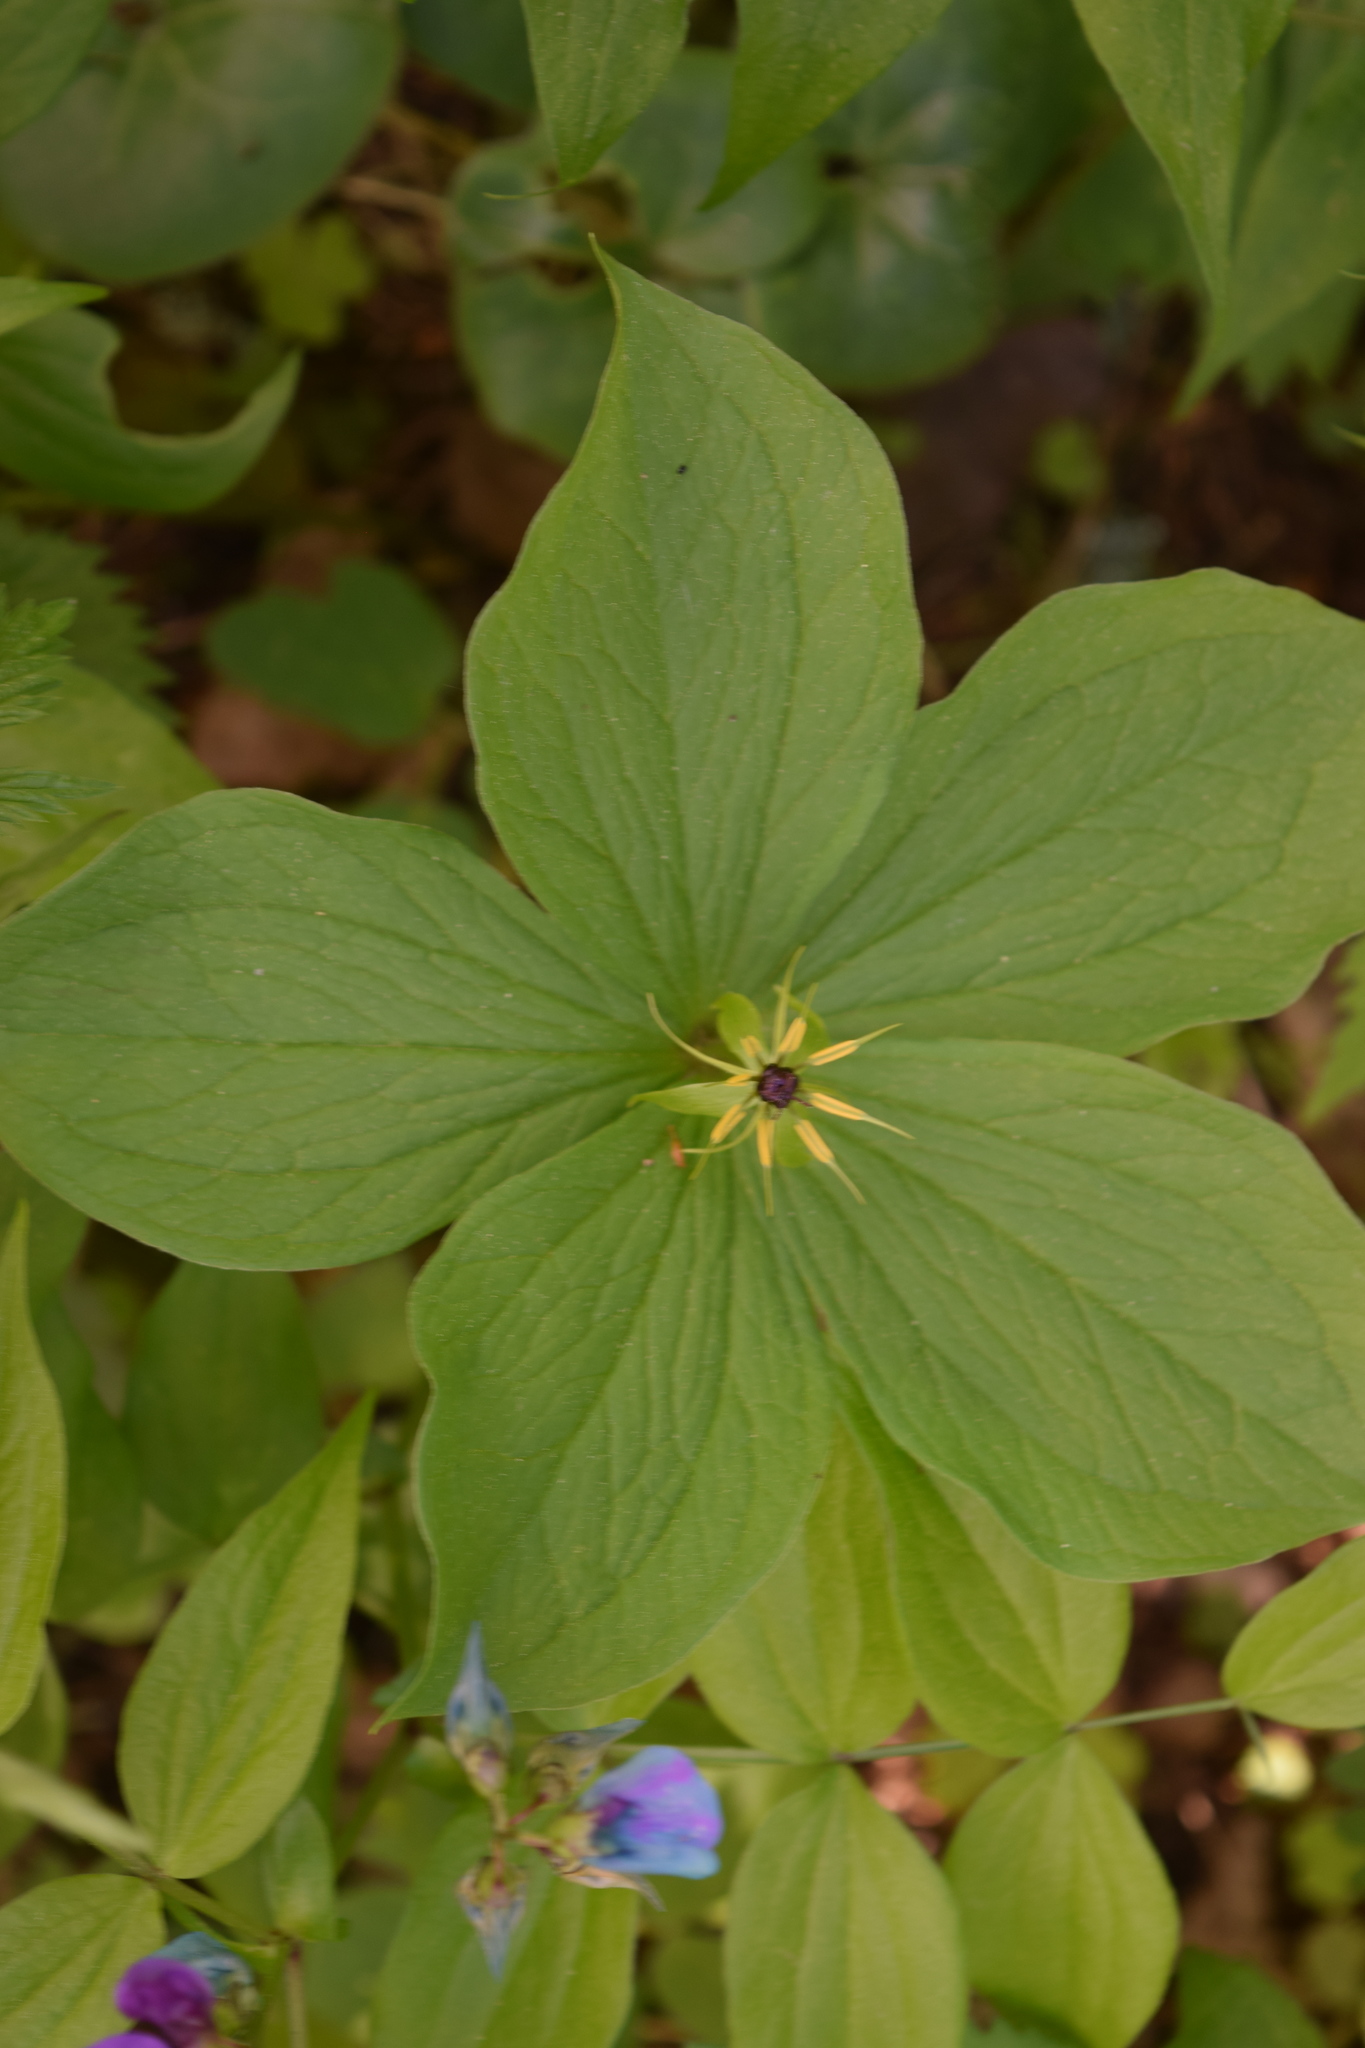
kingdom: Plantae
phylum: Tracheophyta
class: Liliopsida
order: Liliales
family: Melanthiaceae
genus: Paris
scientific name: Paris quadrifolia
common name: Herb-paris
